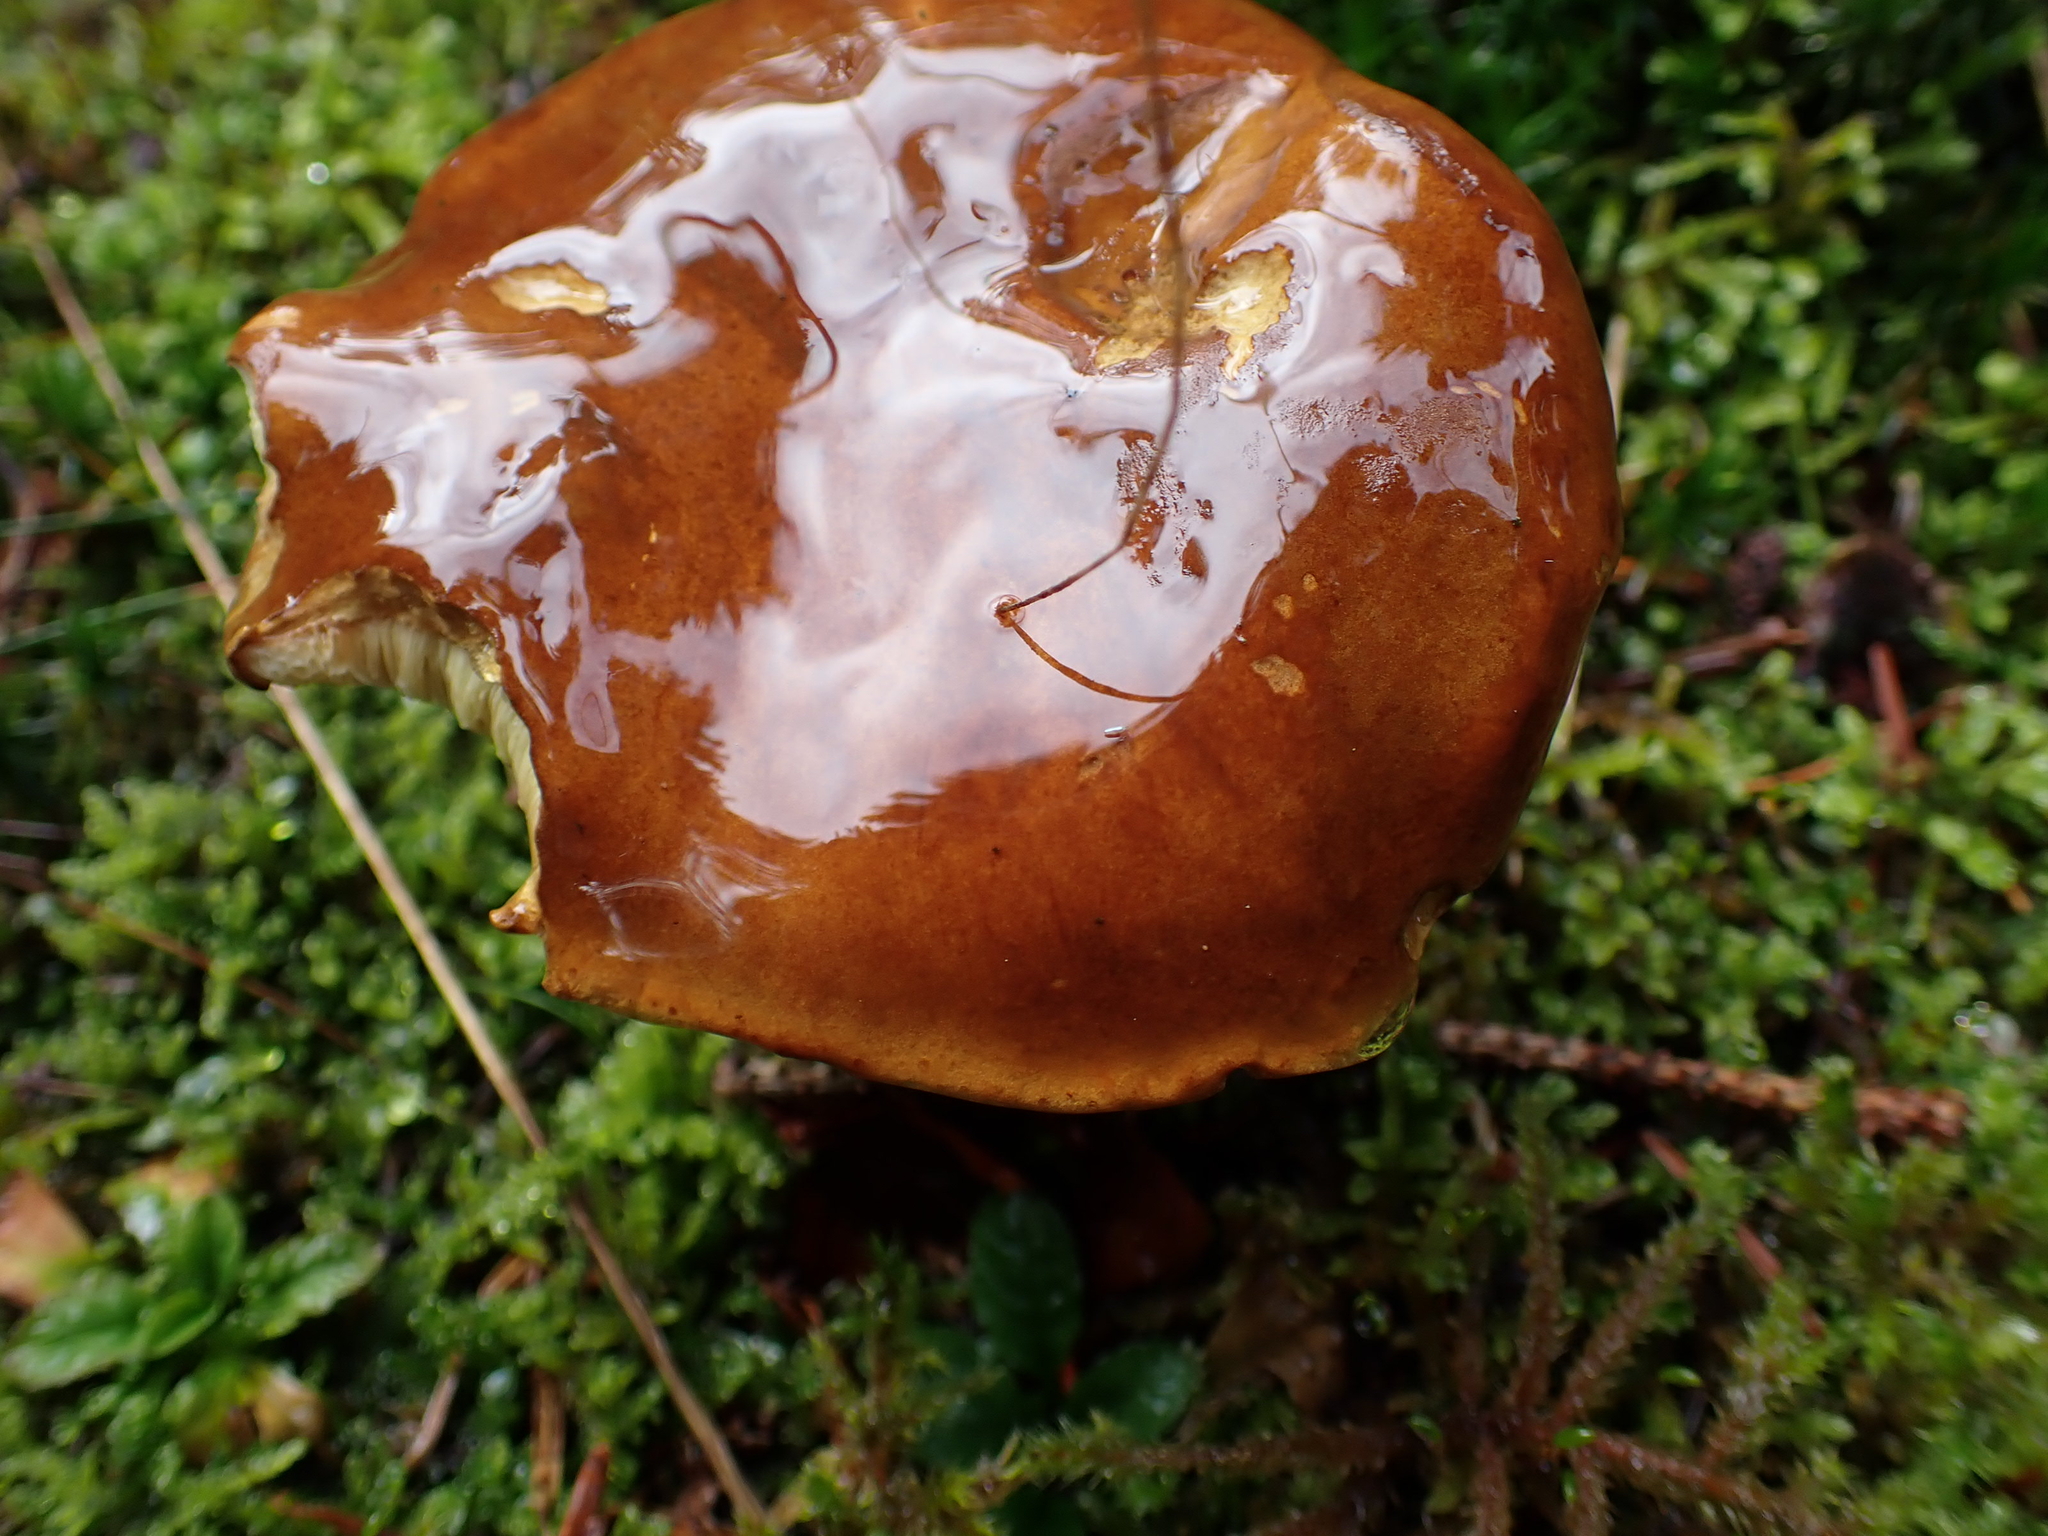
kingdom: Fungi
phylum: Basidiomycota
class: Agaricomycetes
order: Boletales
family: Boletaceae
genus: Imleria
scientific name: Imleria badia
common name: Bay bolete
